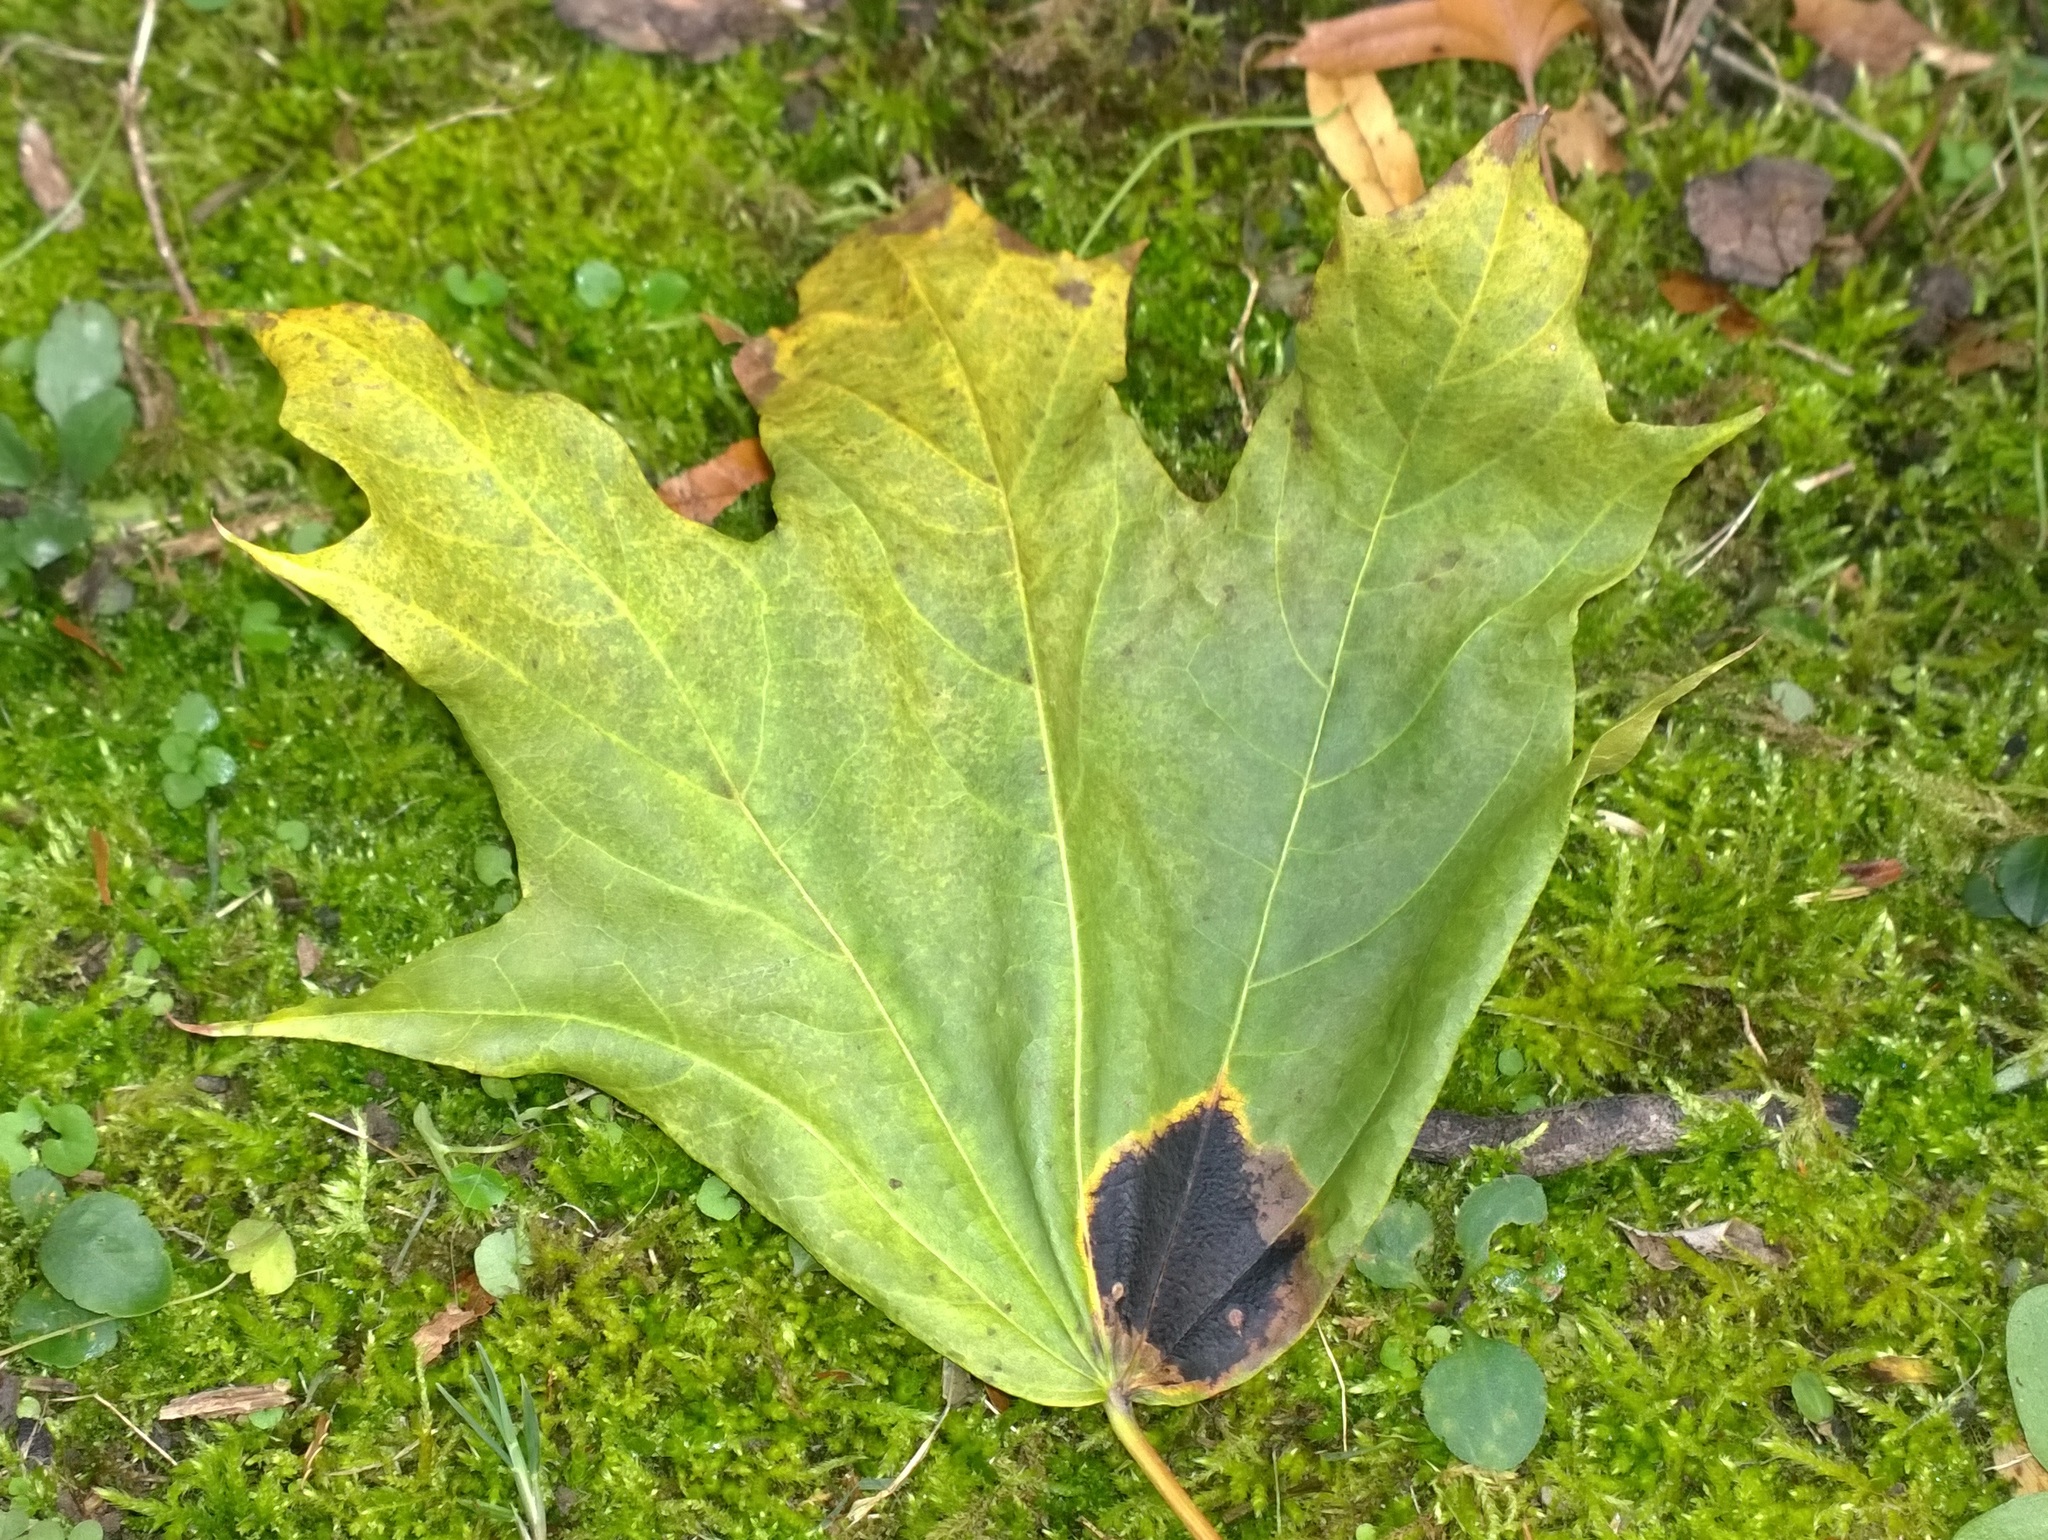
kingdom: Fungi
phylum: Ascomycota
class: Leotiomycetes
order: Rhytismatales
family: Rhytismataceae
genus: Rhytisma
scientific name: Rhytisma acerinum
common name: European tar spot
